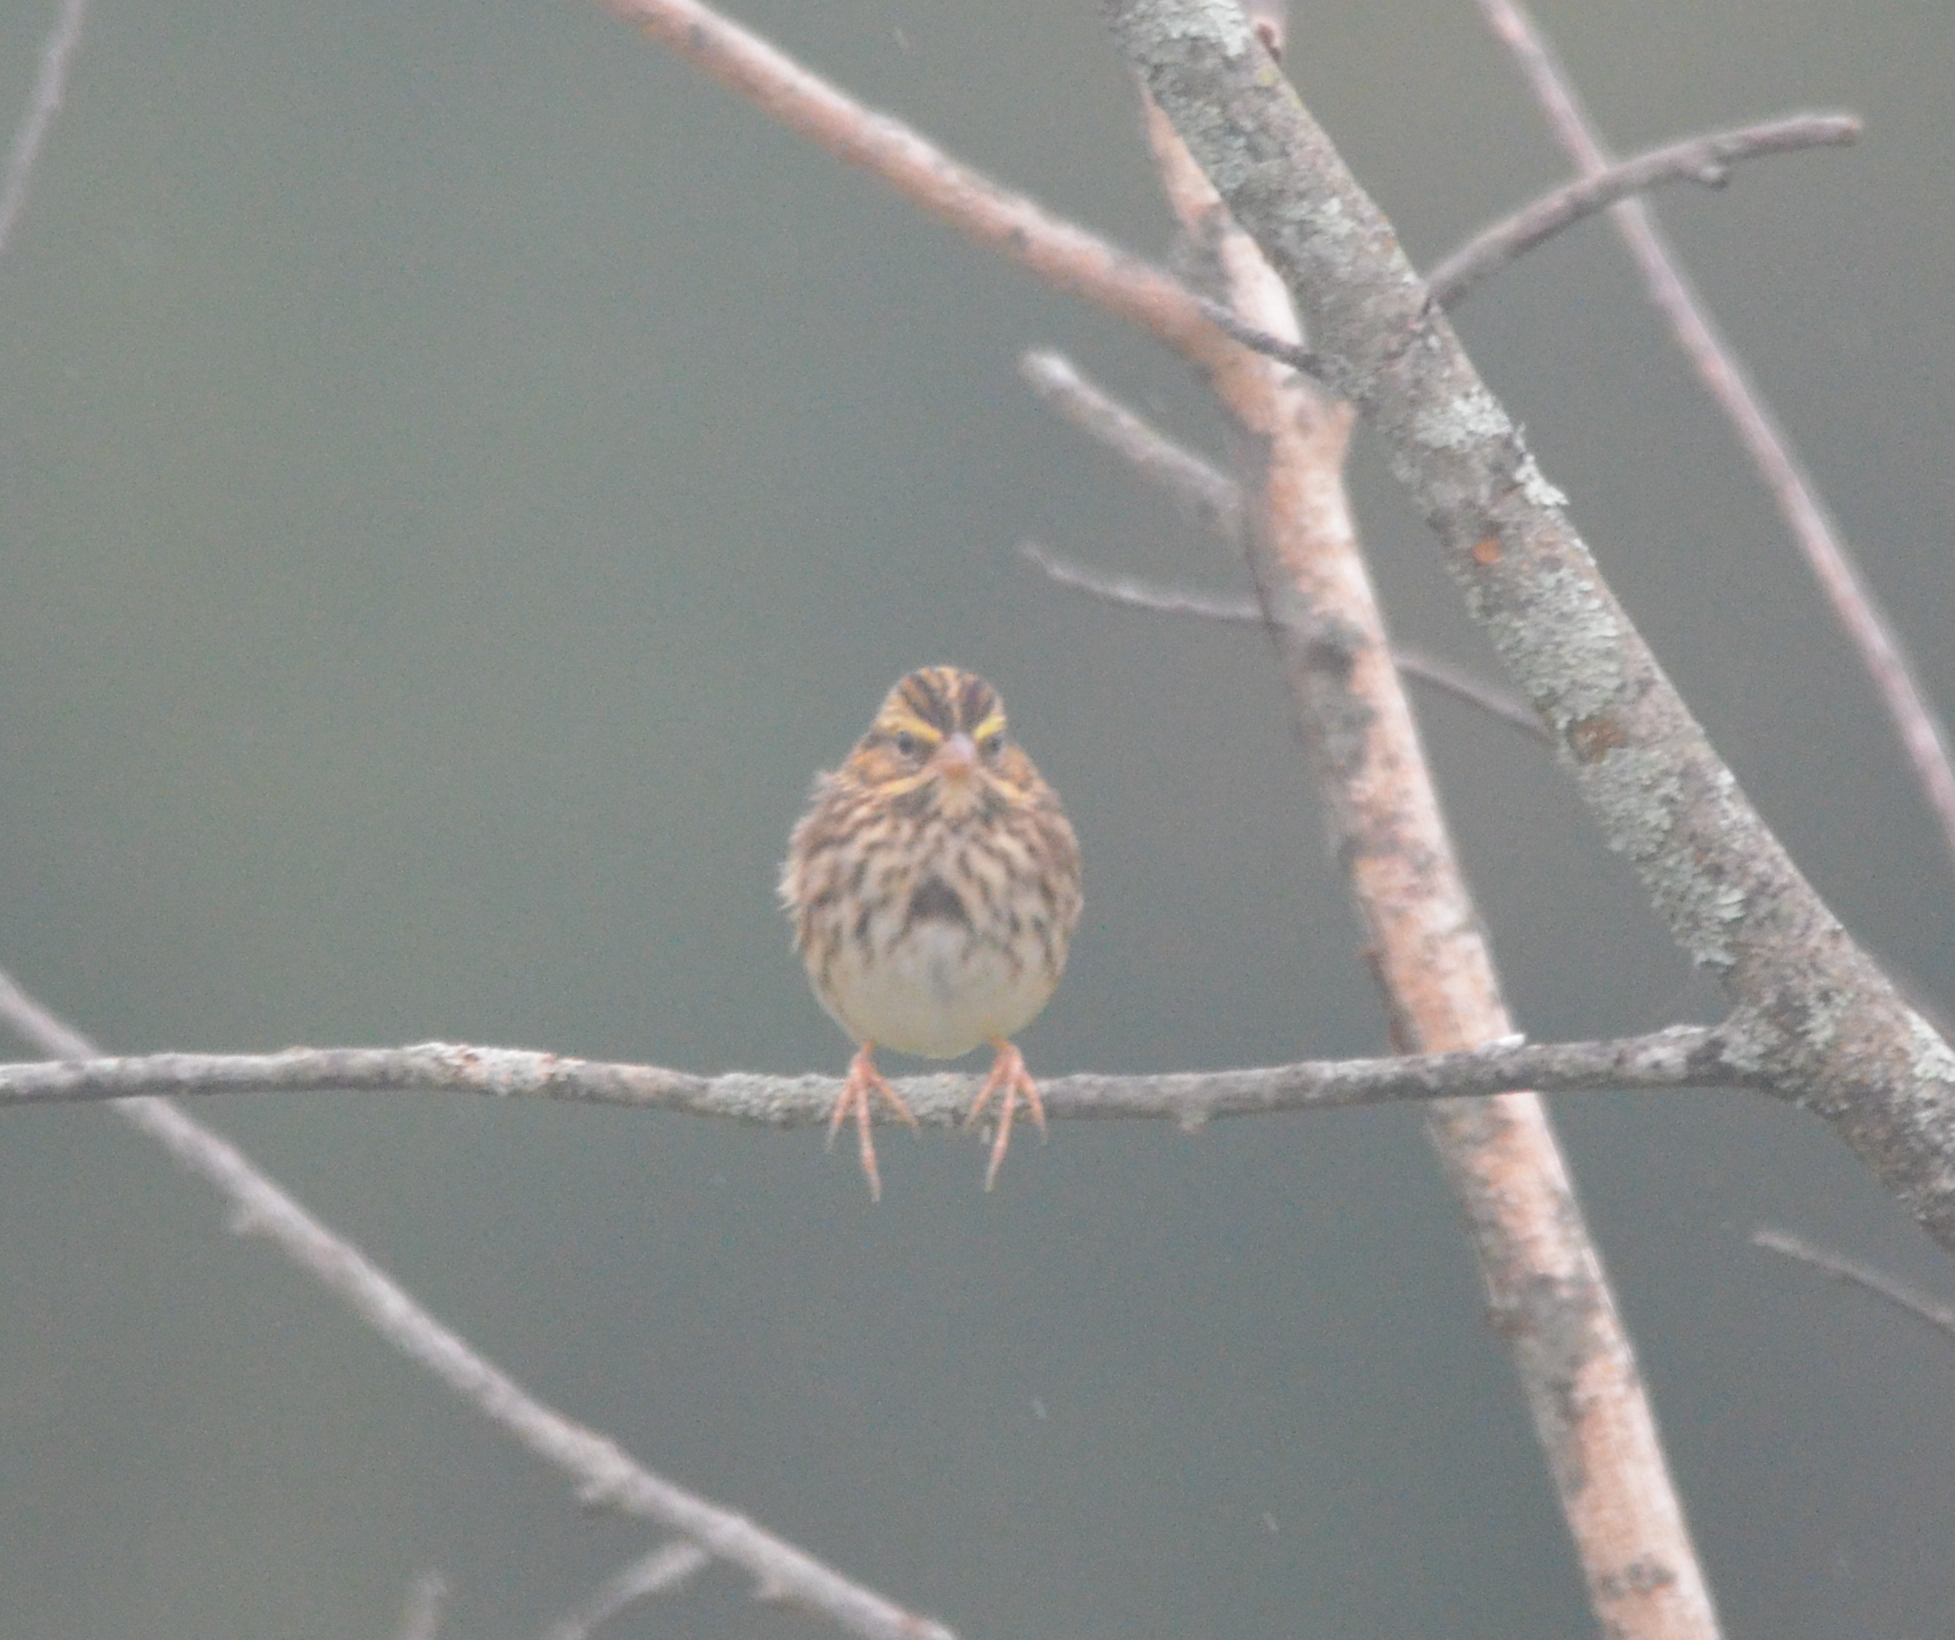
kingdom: Animalia
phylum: Chordata
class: Aves
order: Passeriformes
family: Passerellidae
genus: Passerculus
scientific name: Passerculus sandwichensis
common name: Savannah sparrow
